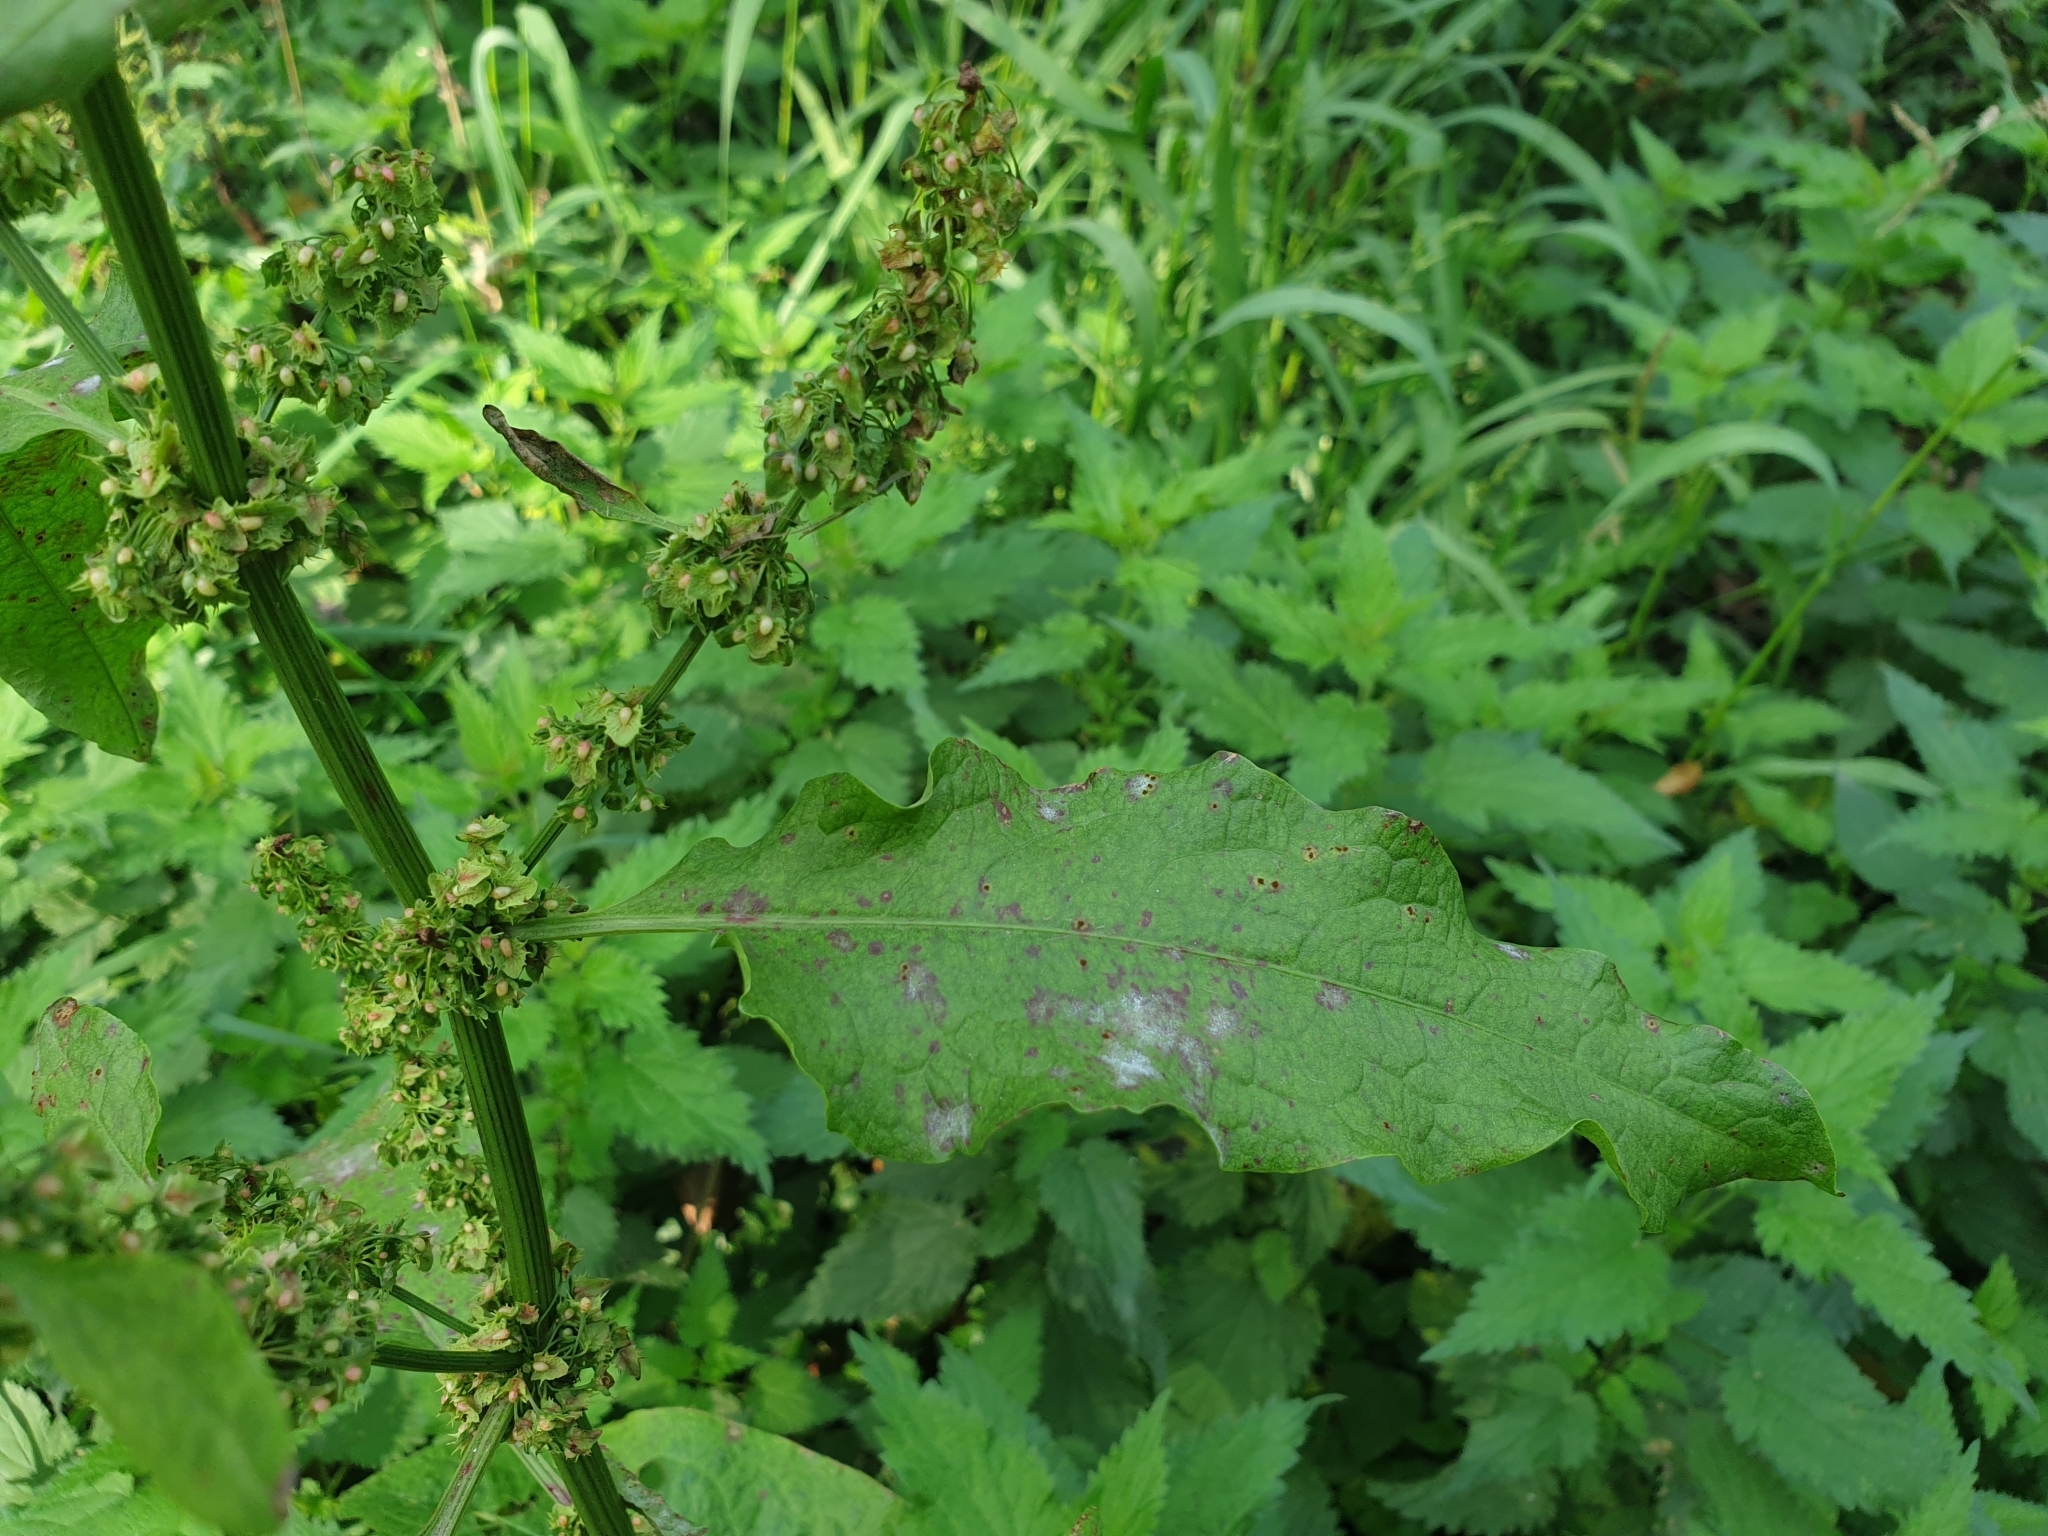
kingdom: Plantae
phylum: Tracheophyta
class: Magnoliopsida
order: Caryophyllales
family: Polygonaceae
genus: Rumex
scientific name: Rumex obtusifolius
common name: Bitter dock
